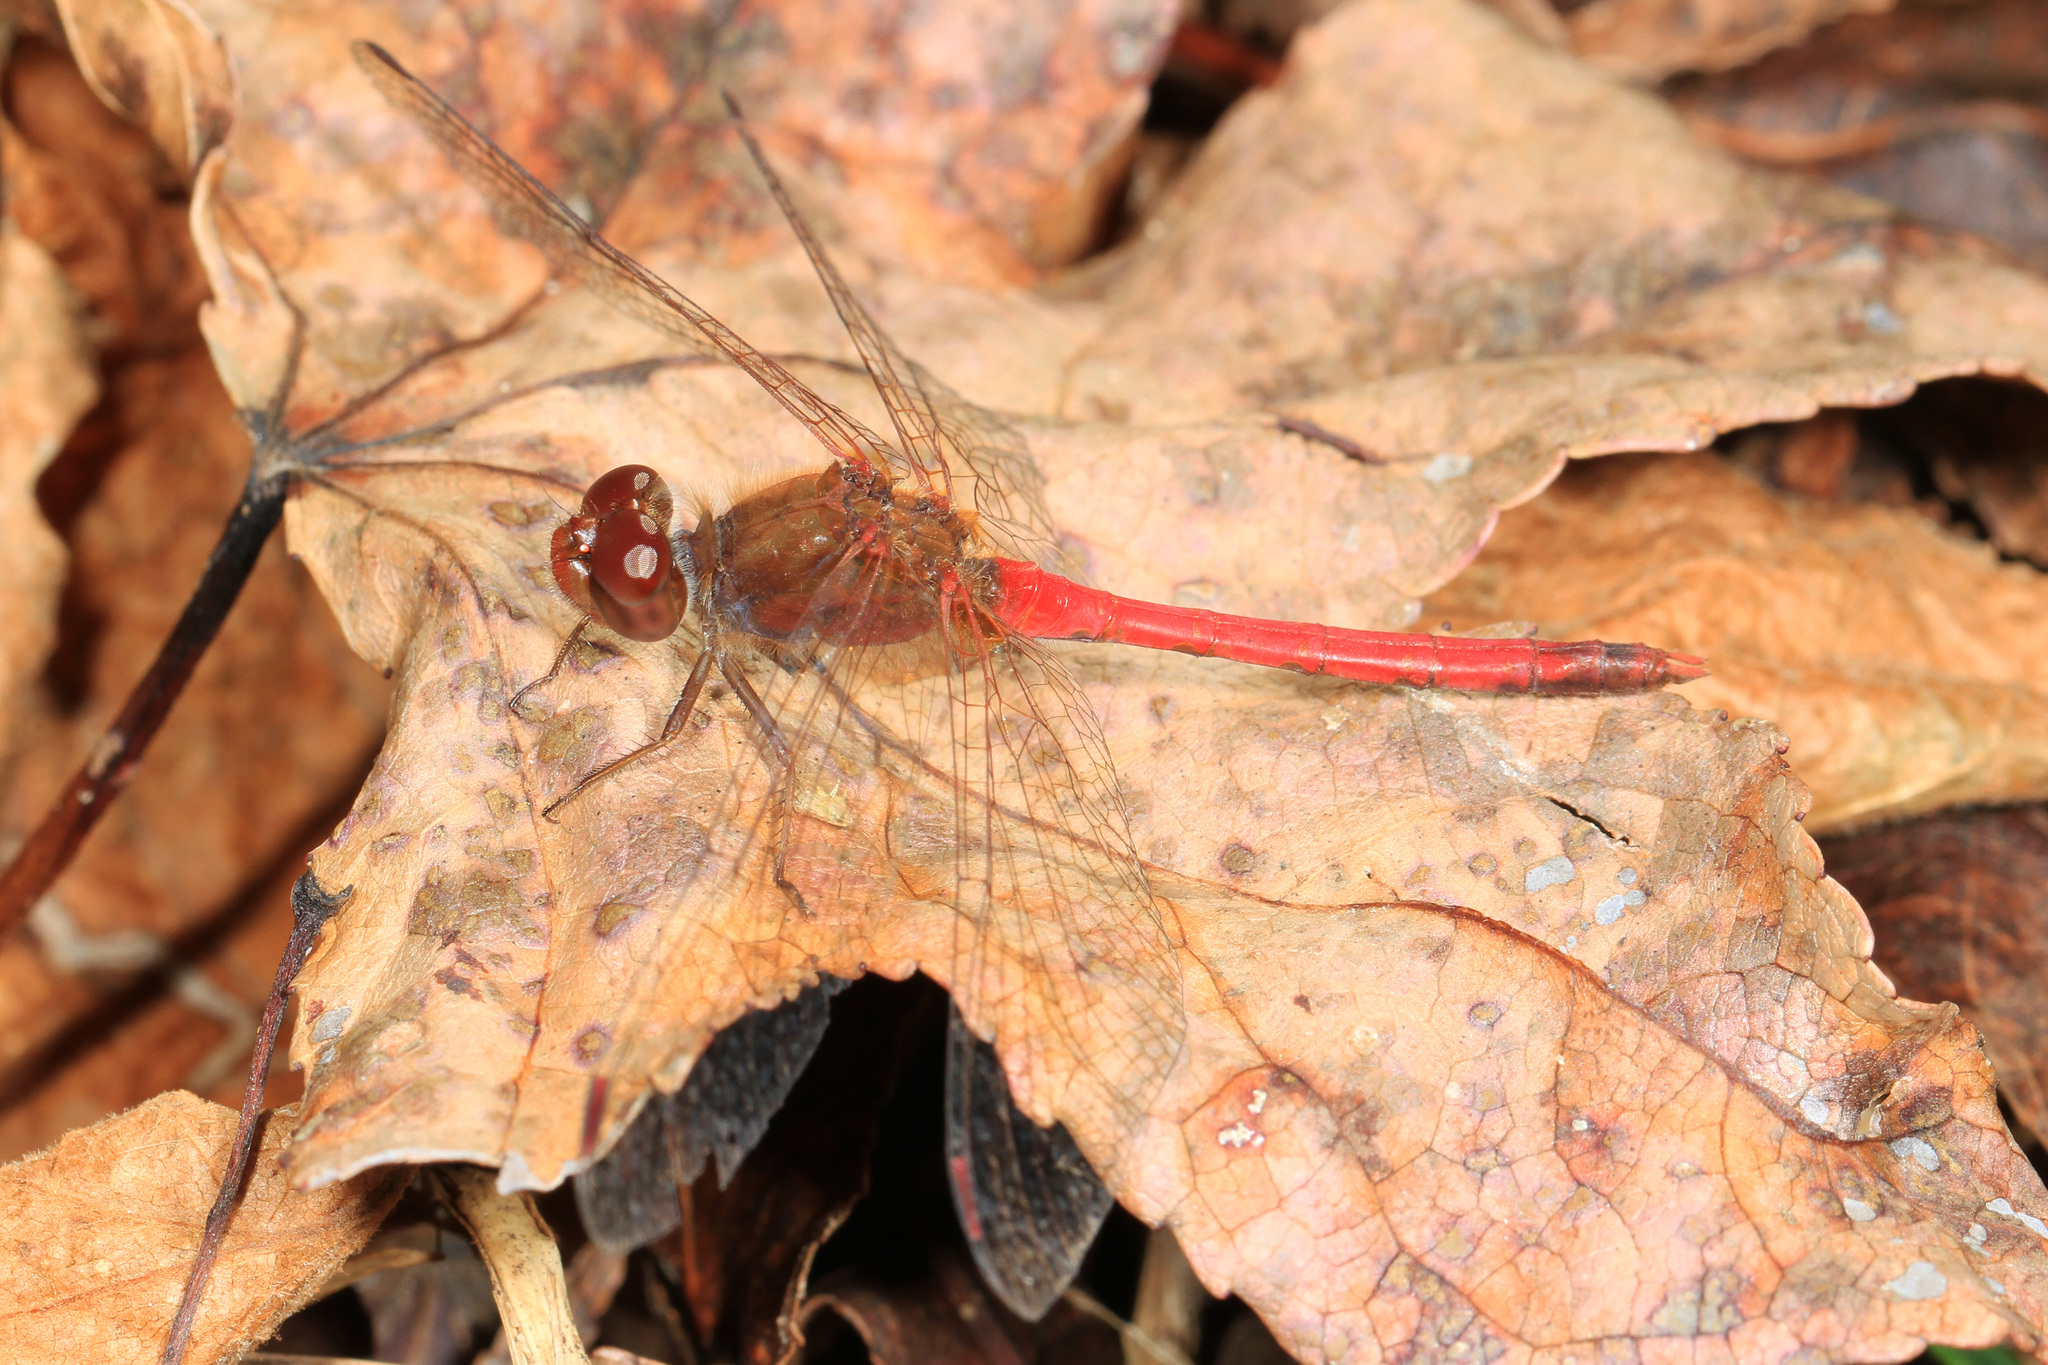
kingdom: Animalia
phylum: Arthropoda
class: Insecta
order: Odonata
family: Libellulidae
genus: Sympetrum
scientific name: Sympetrum vicinum
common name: Autumn meadowhawk
